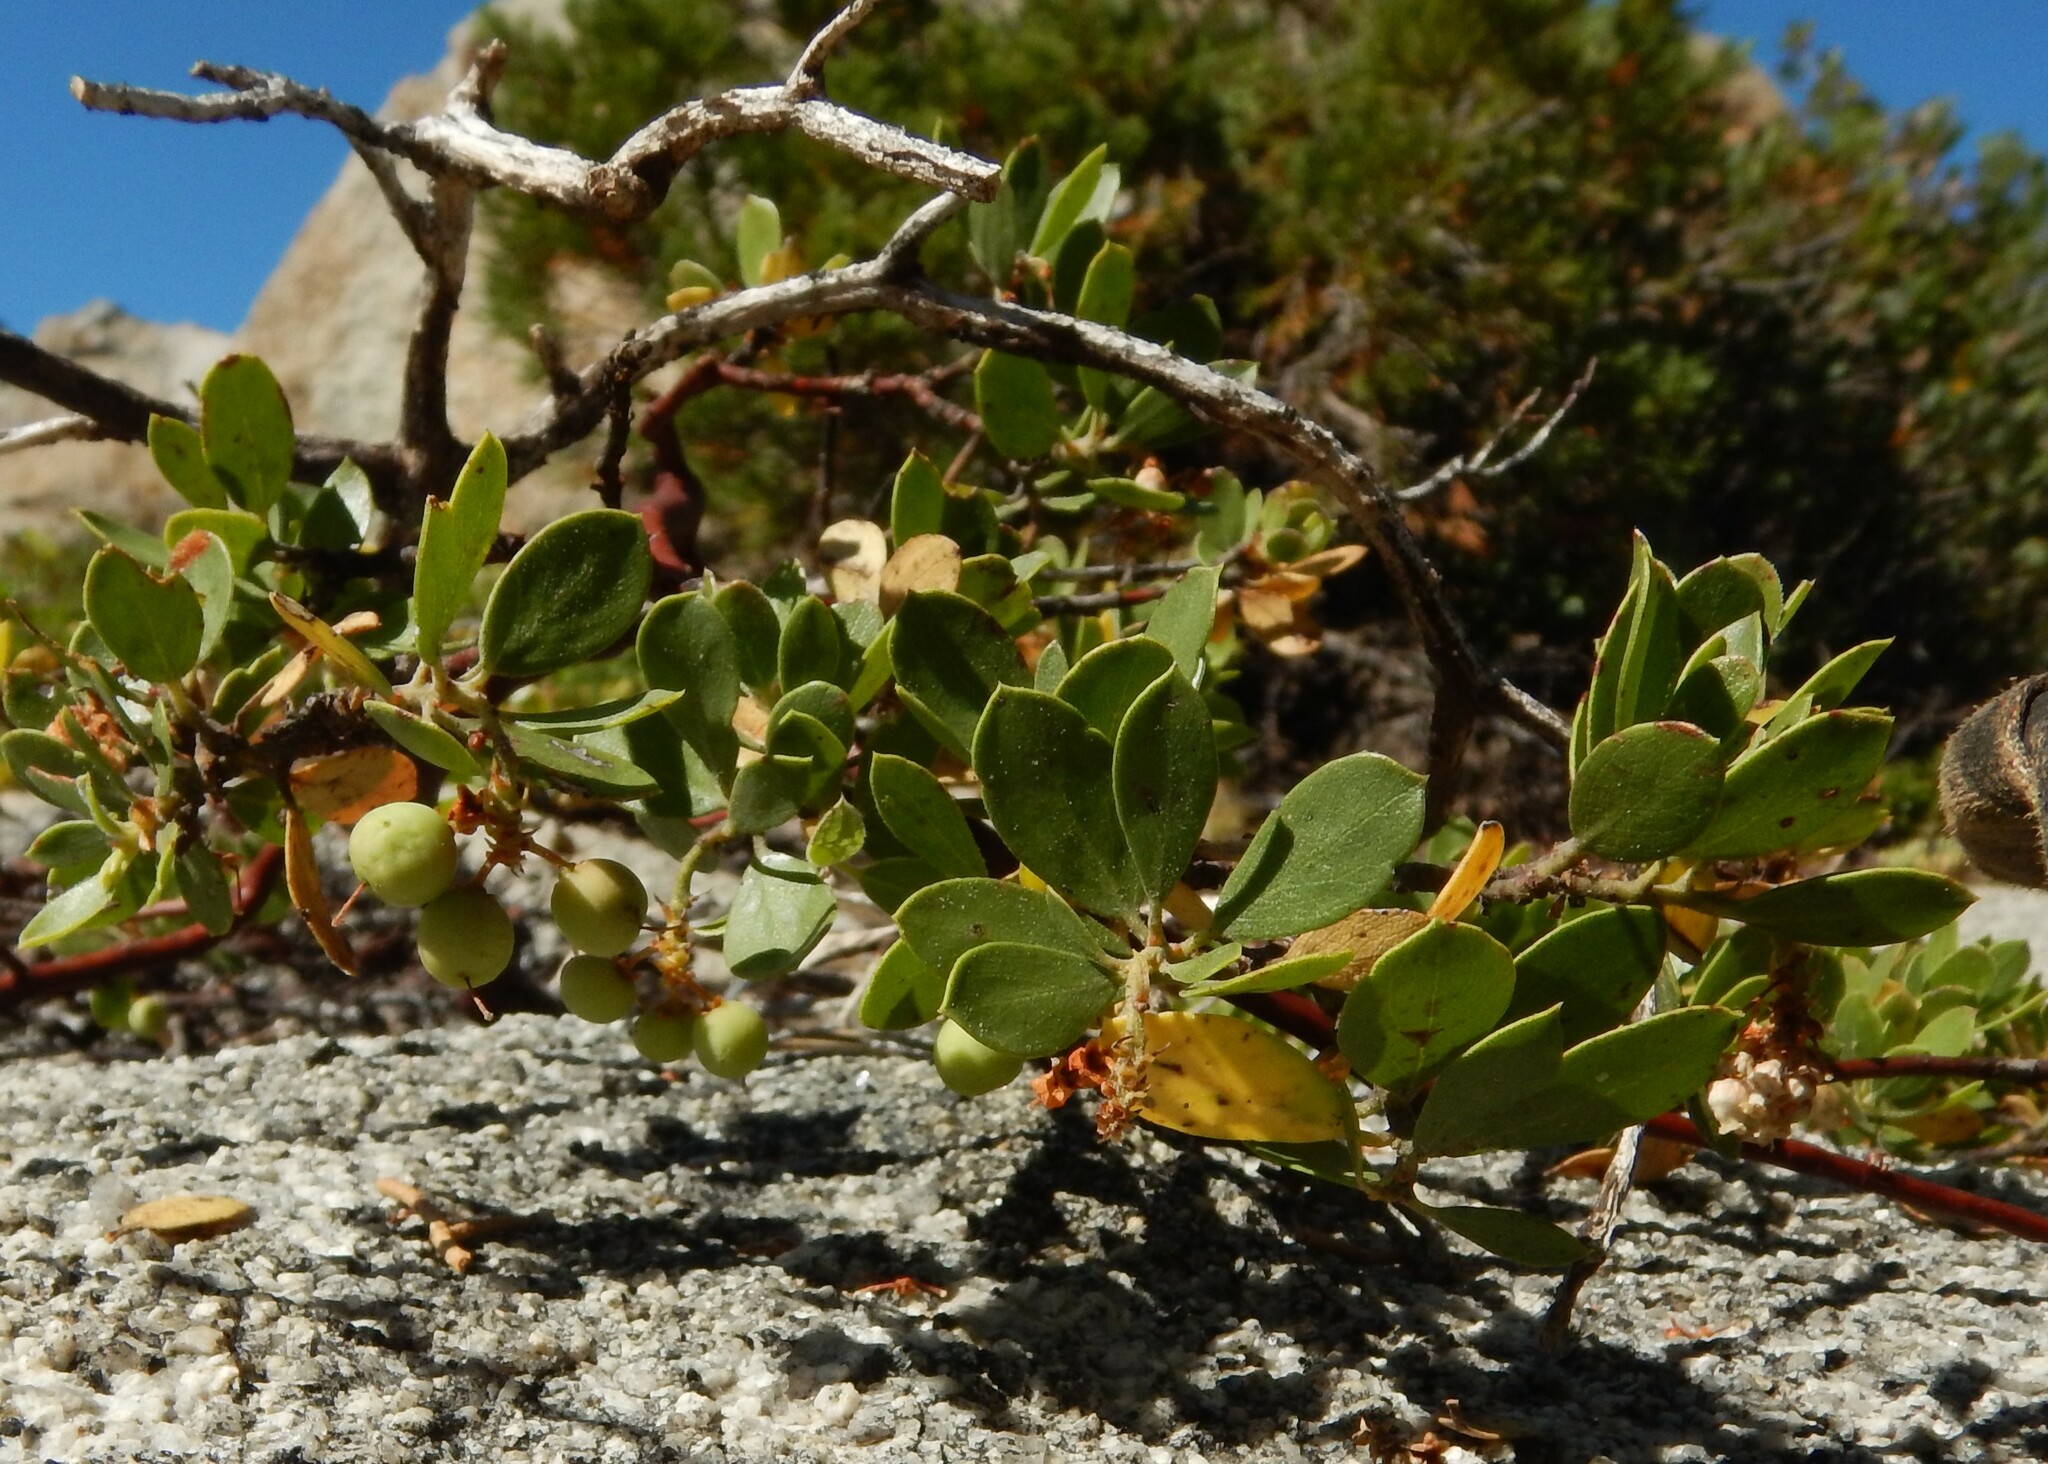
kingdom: Plantae
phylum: Tracheophyta
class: Magnoliopsida
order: Ericales
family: Ericaceae
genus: Arctostaphylos
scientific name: Arctostaphylos nevadensis
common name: Pinemat manzanita
